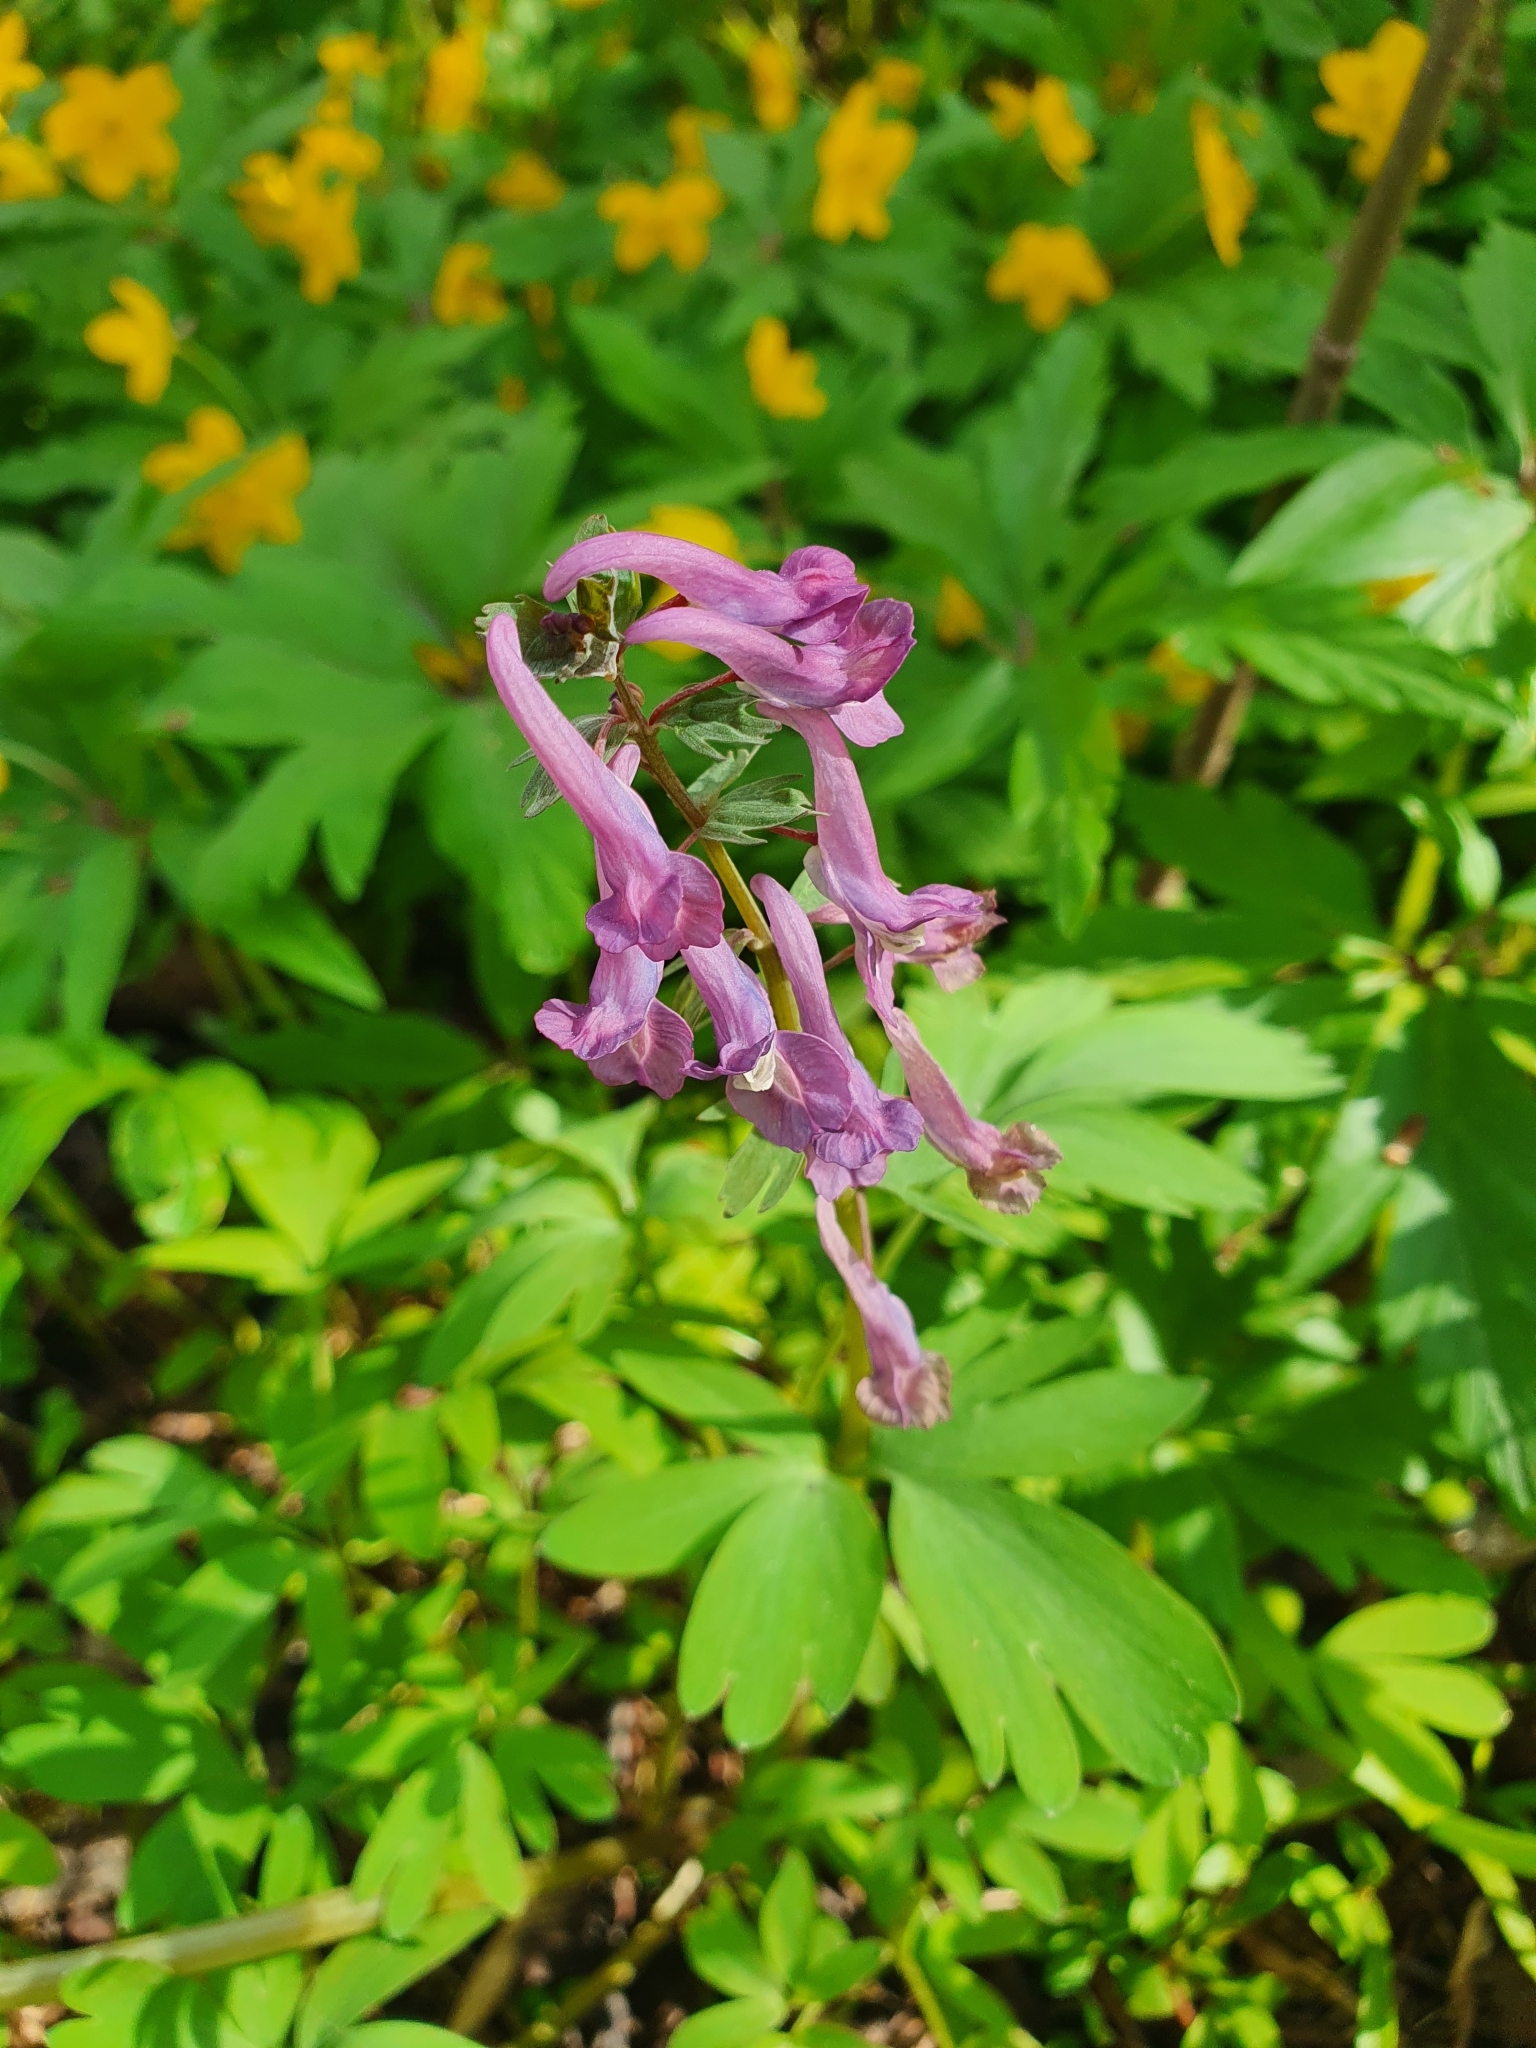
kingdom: Plantae
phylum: Tracheophyta
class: Magnoliopsida
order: Ranunculales
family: Papaveraceae
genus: Corydalis
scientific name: Corydalis solida
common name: Bird-in-a-bush
